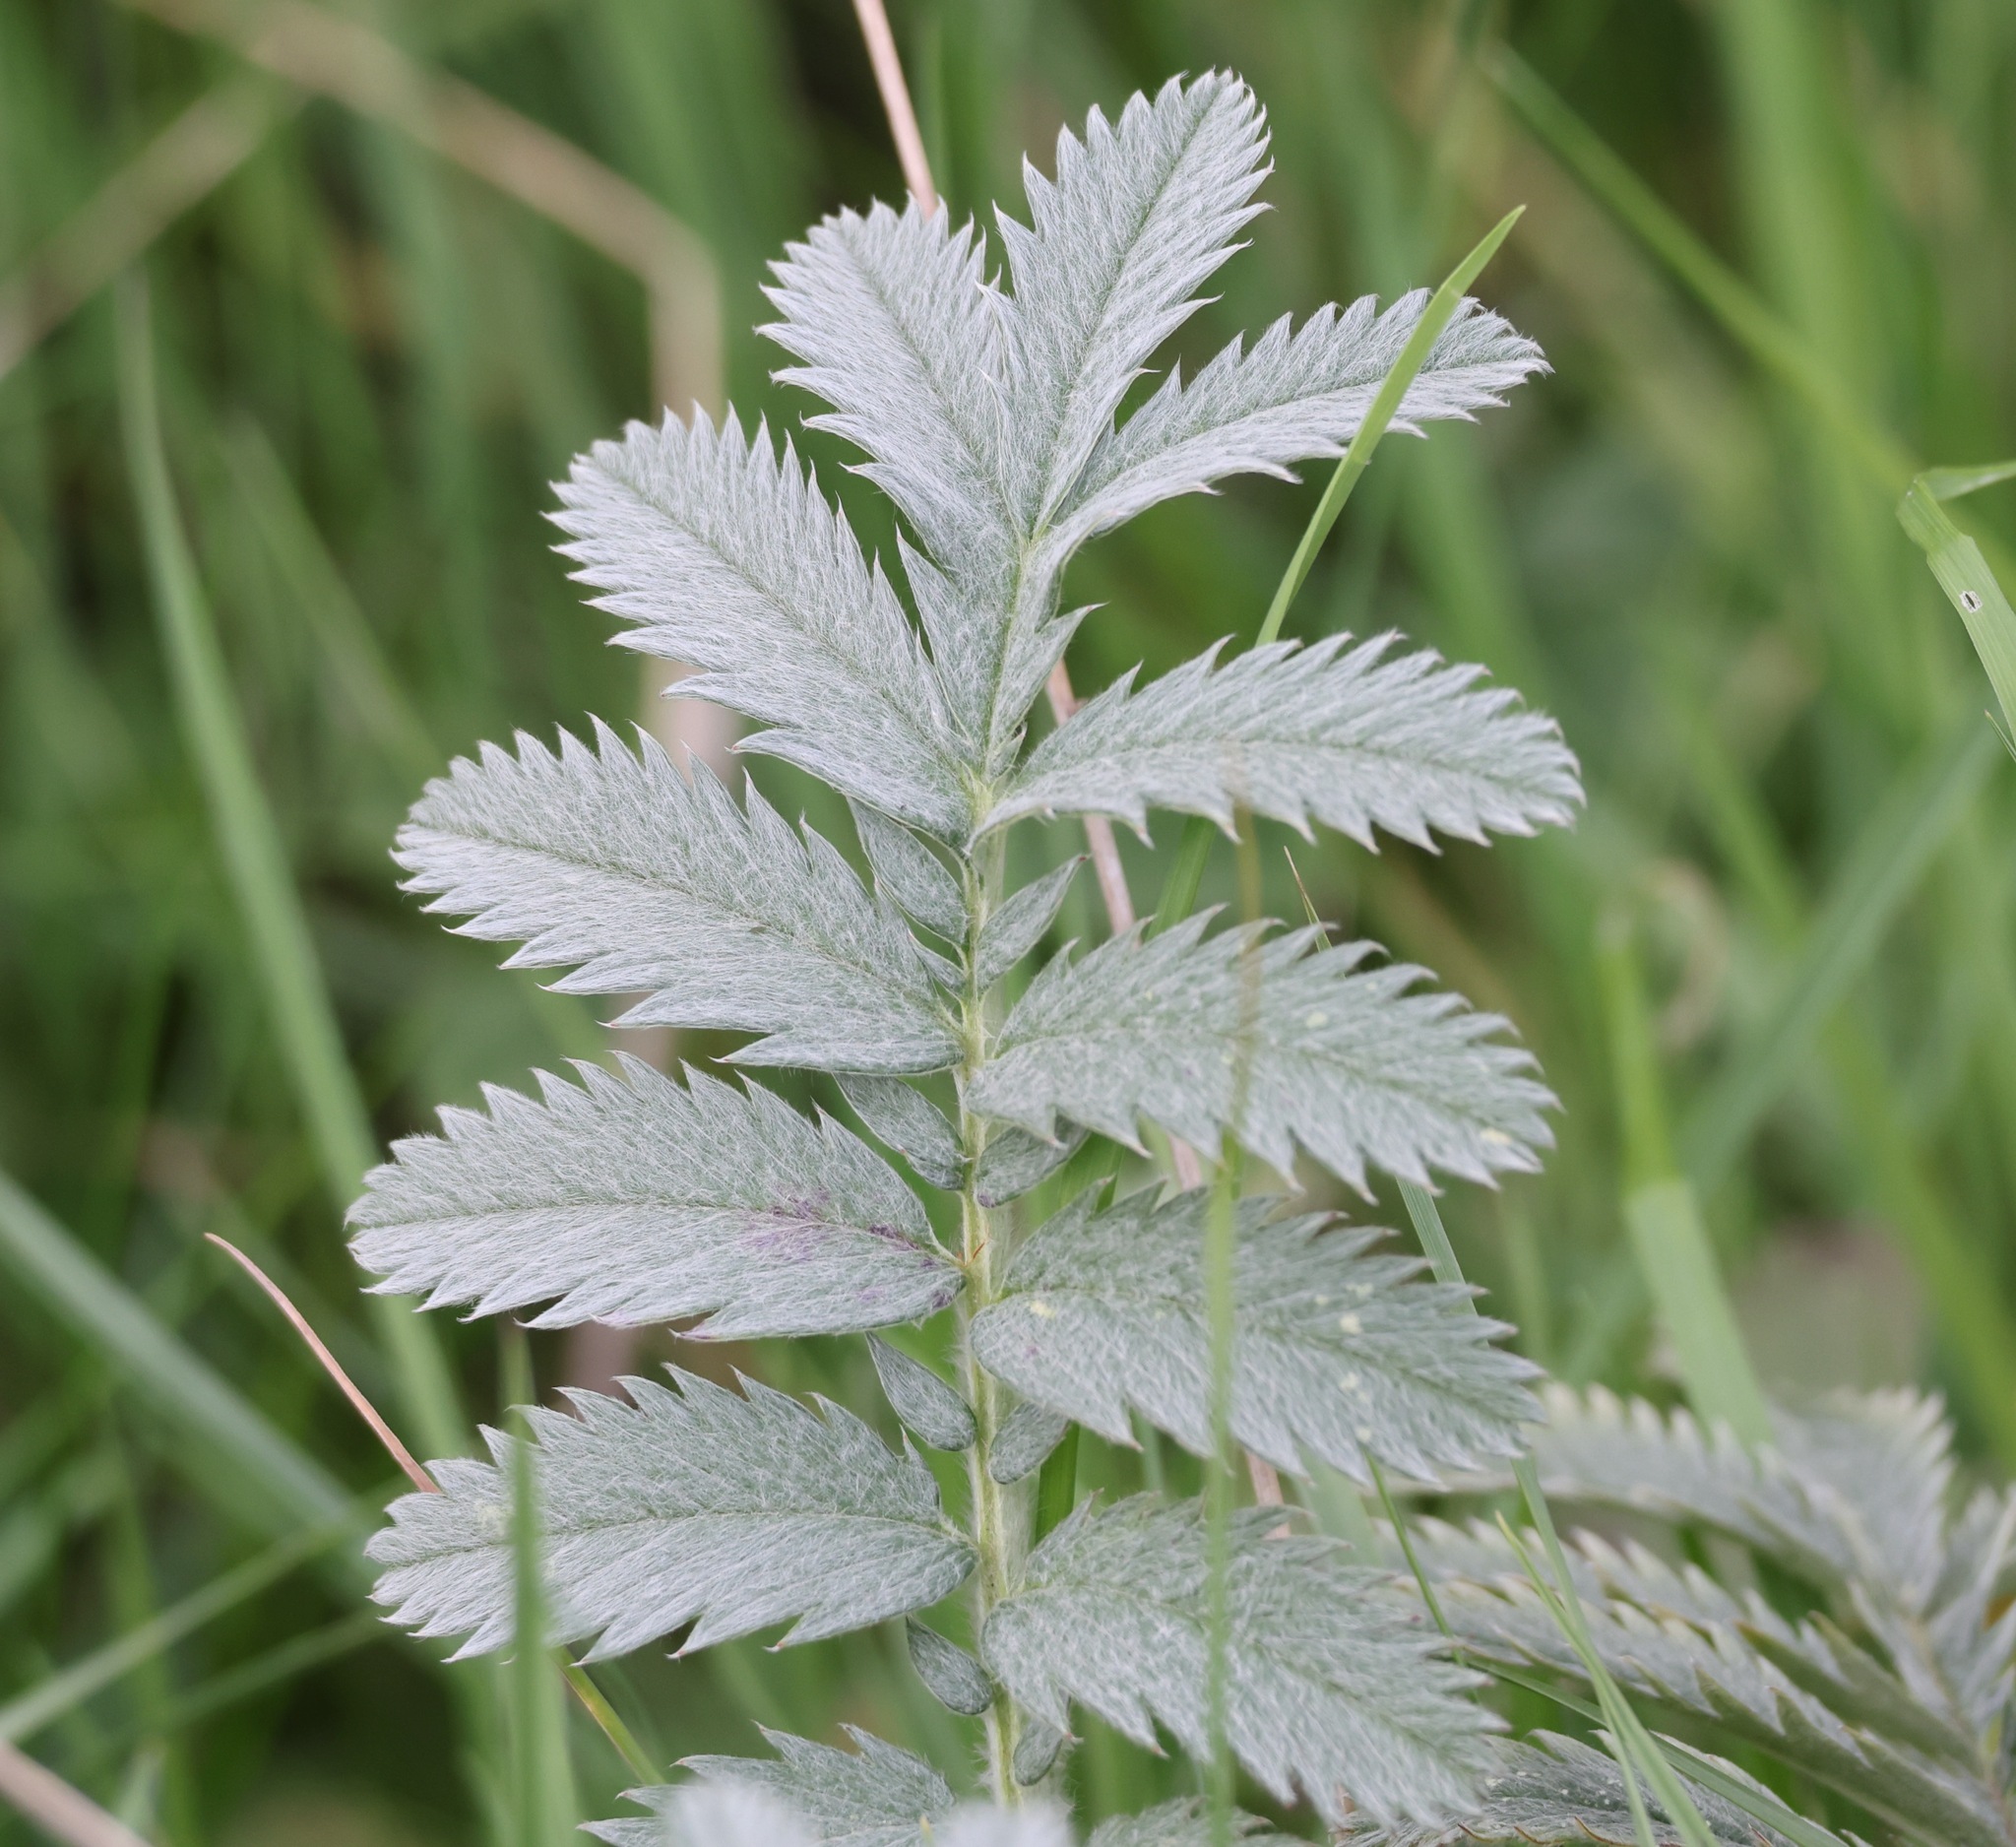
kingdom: Plantae
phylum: Tracheophyta
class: Magnoliopsida
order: Rosales
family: Rosaceae
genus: Argentina
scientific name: Argentina anserina
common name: Common silverweed
